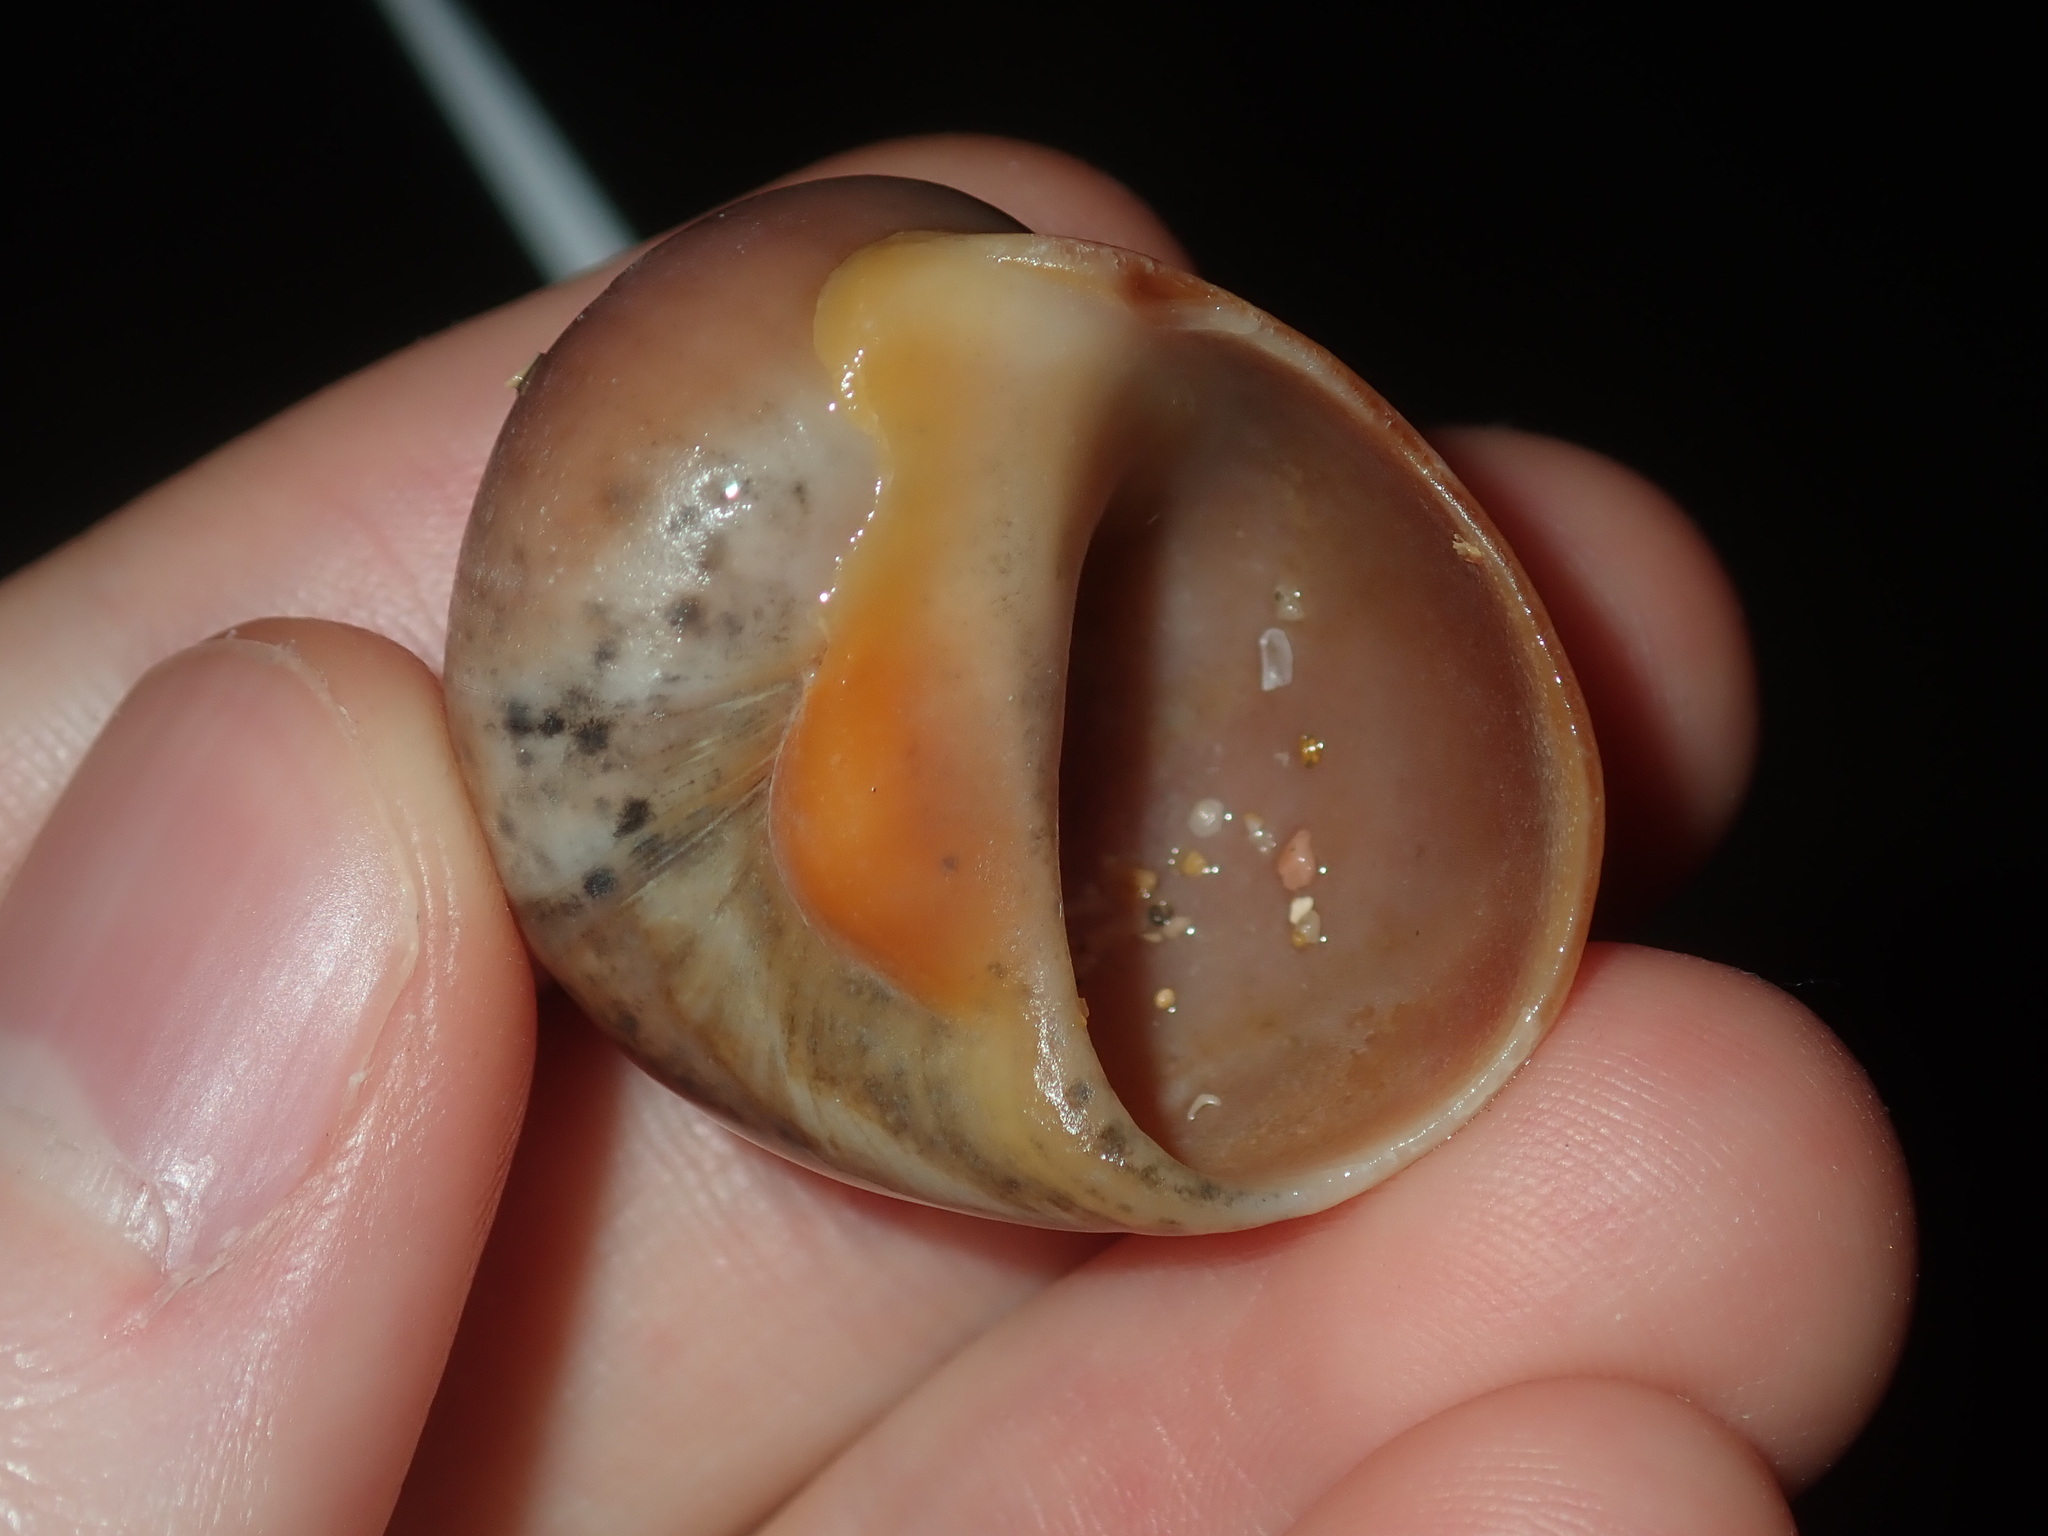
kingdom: Animalia
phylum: Mollusca
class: Gastropoda
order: Littorinimorpha
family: Naticidae
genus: Conuber
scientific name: Conuber melastoma
